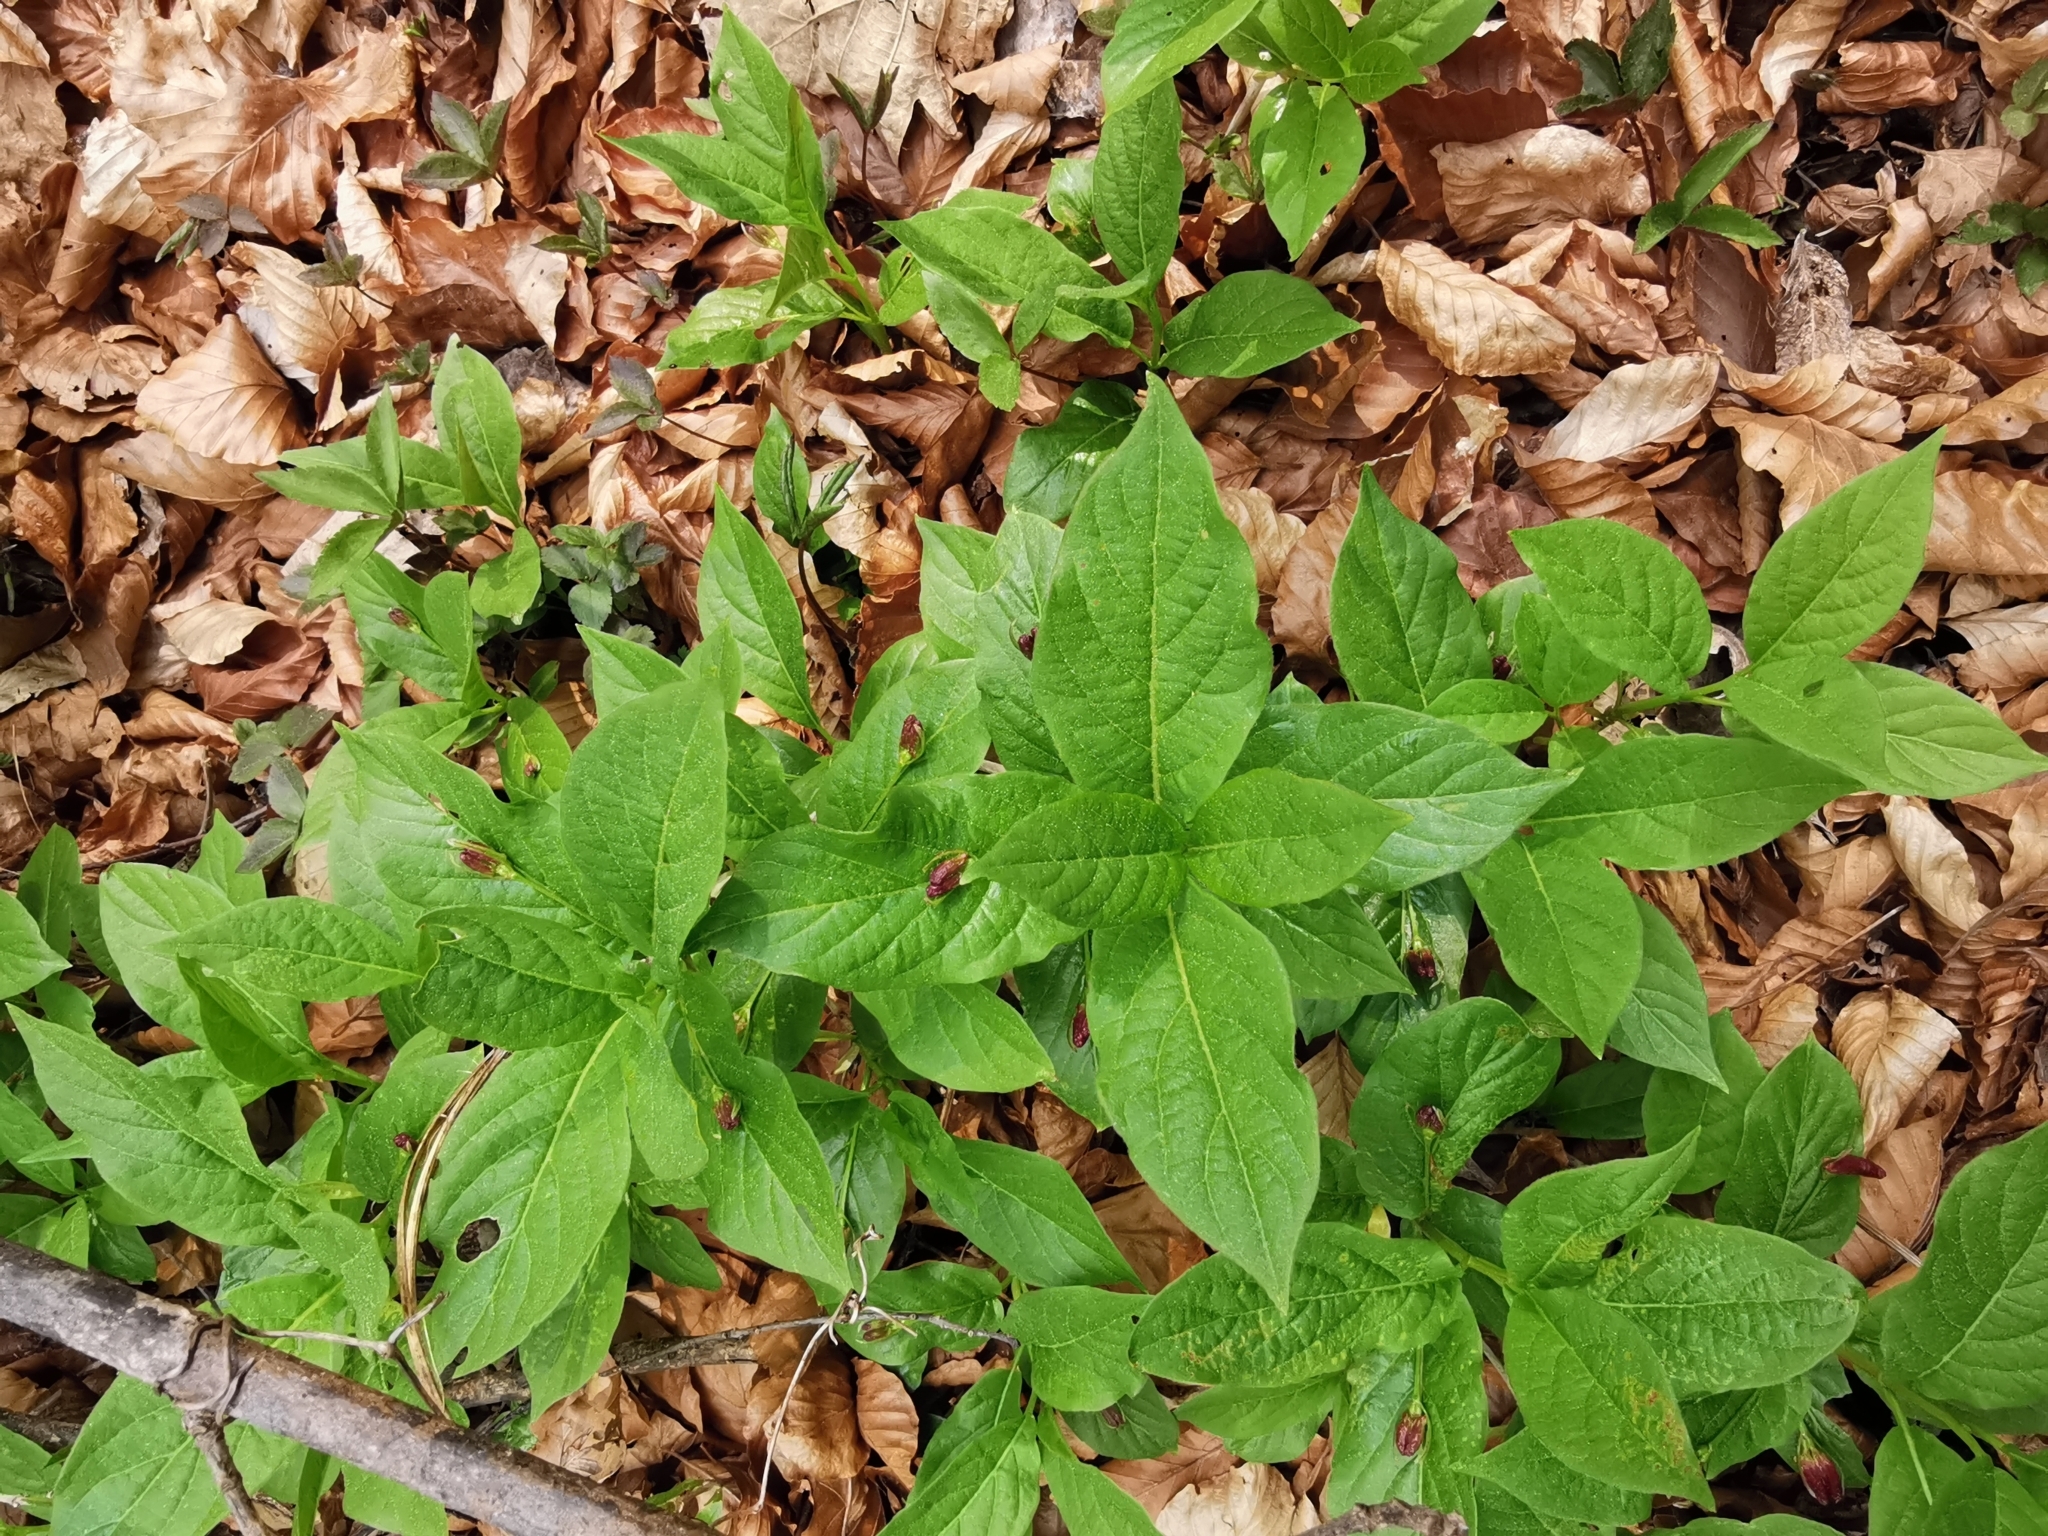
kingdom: Plantae
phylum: Tracheophyta
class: Magnoliopsida
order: Dipsacales
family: Caprifoliaceae
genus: Lonicera
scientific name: Lonicera alpigena
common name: Alpine honeysuckle
